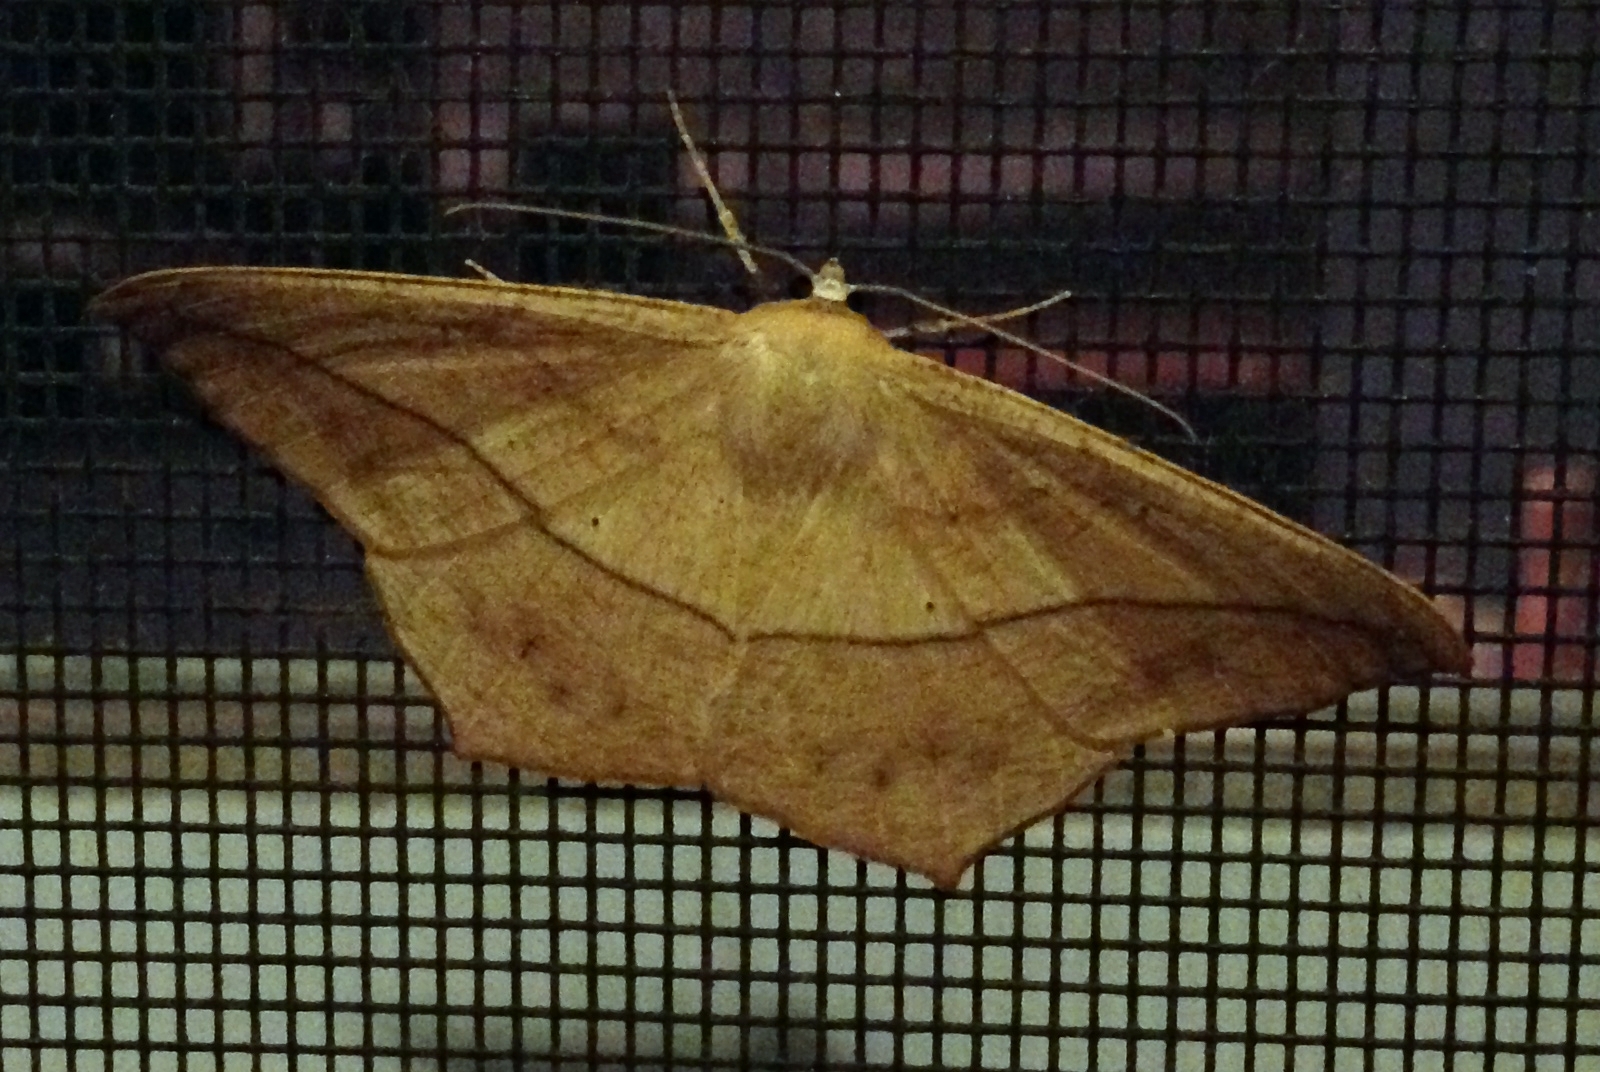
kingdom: Animalia
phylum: Arthropoda
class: Insecta
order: Lepidoptera
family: Geometridae
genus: Prochoerodes
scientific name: Prochoerodes lineola
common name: Large maple spanworm
